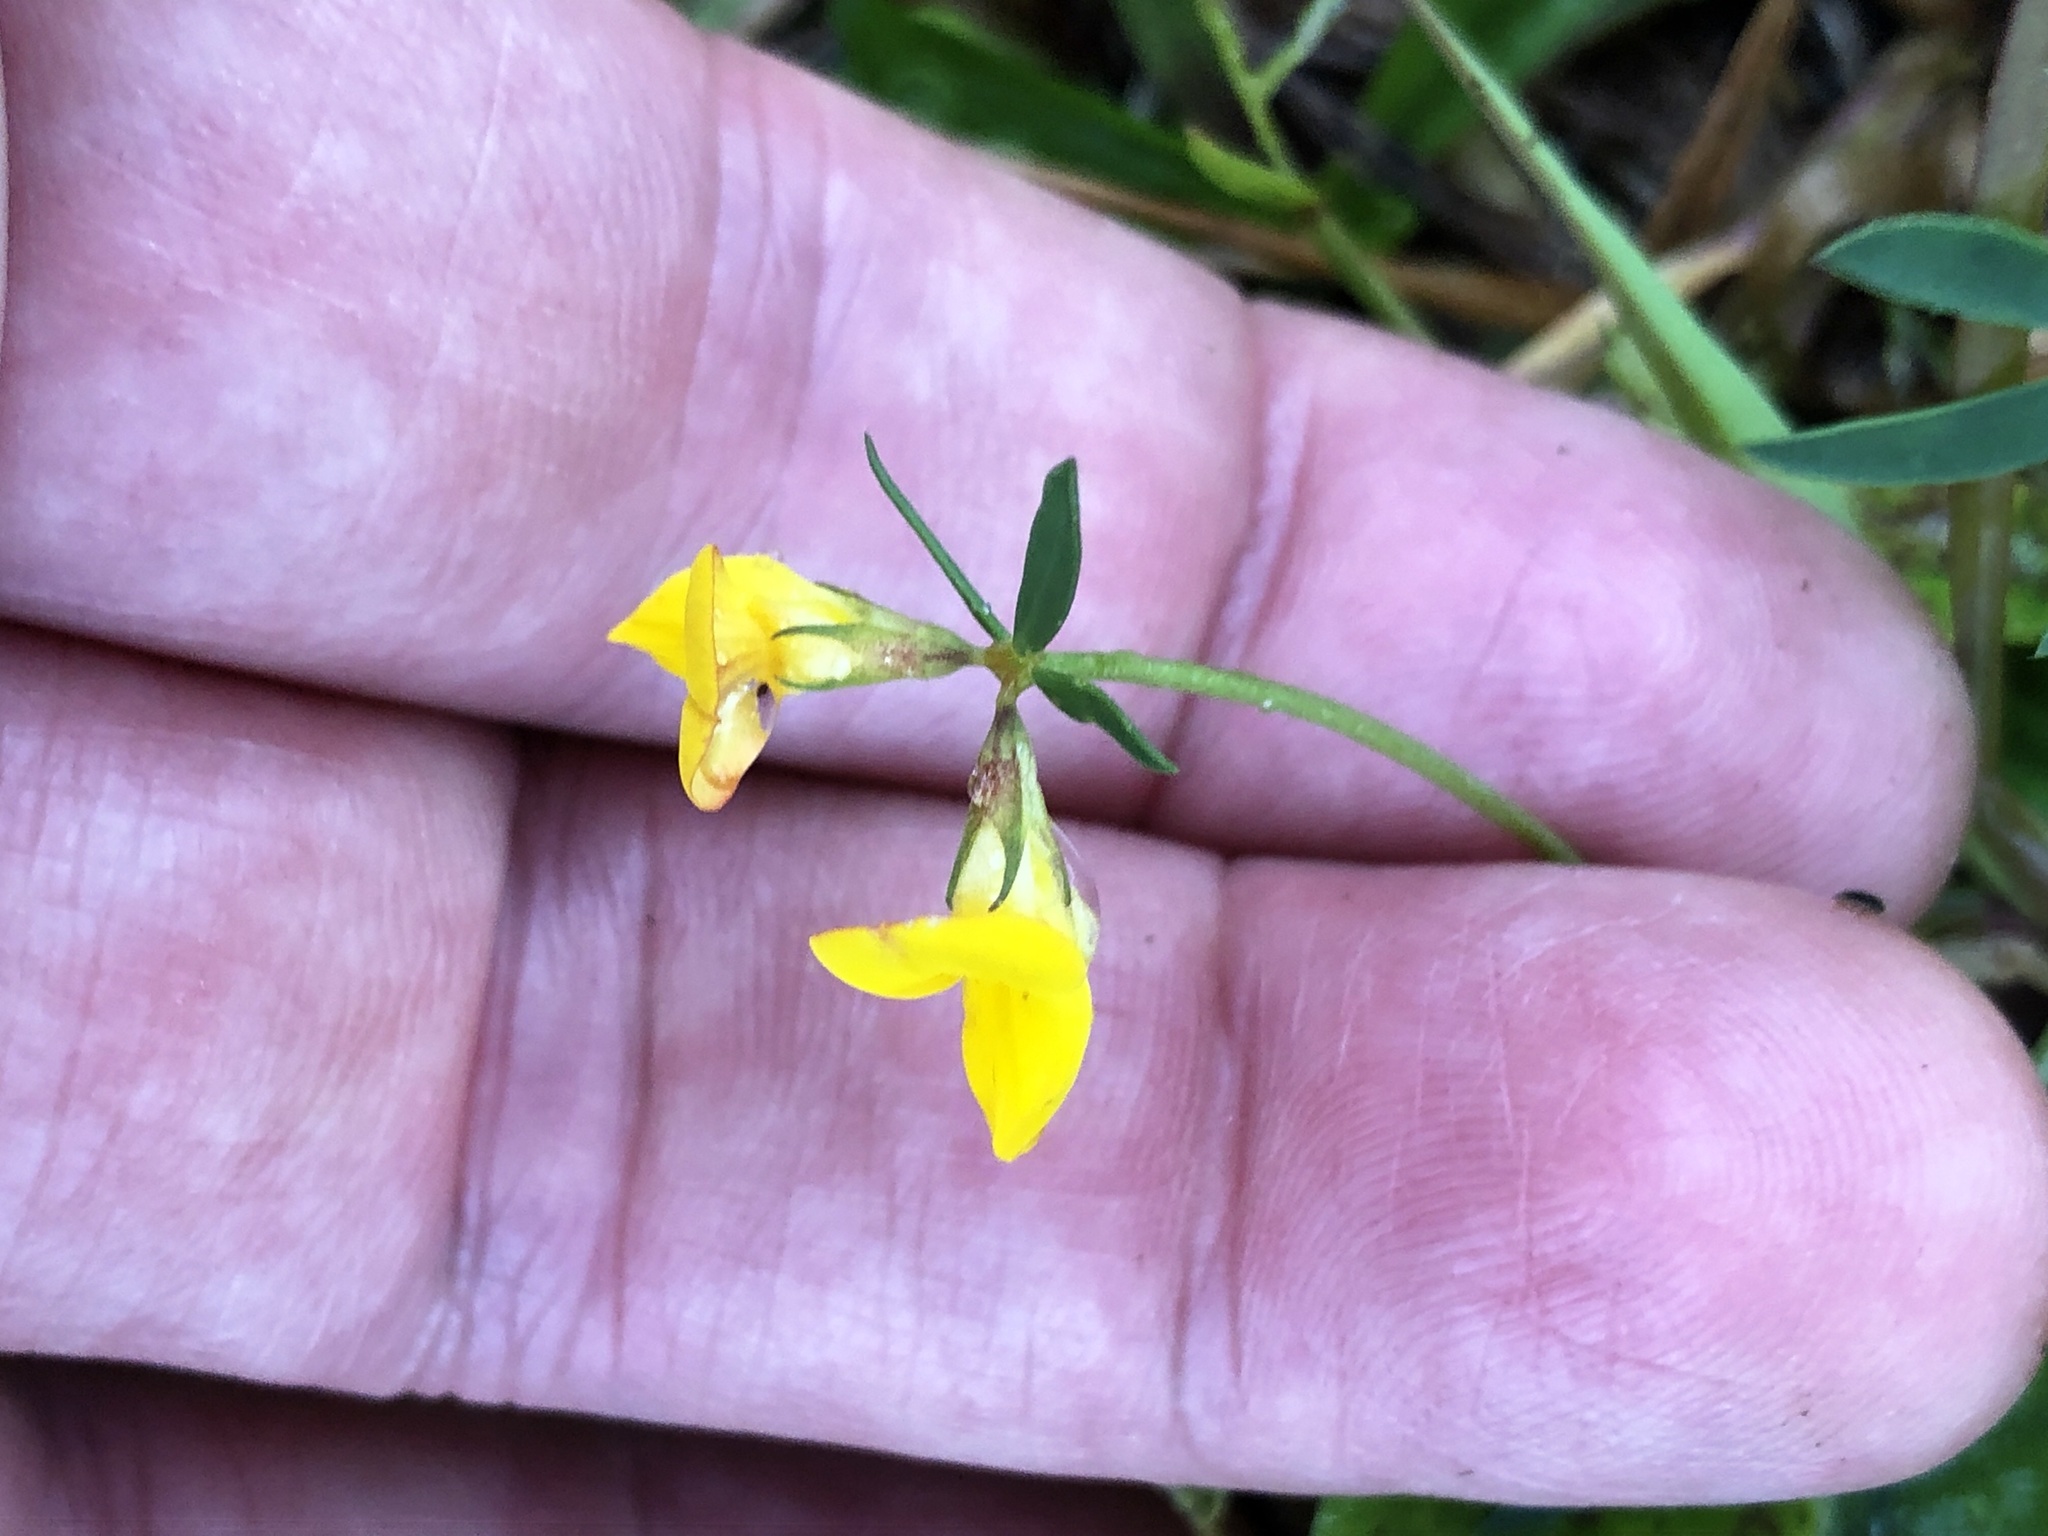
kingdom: Plantae
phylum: Tracheophyta
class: Magnoliopsida
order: Fabales
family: Fabaceae
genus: Lotus
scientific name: Lotus tenuis
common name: Narrow-leaved bird's-foot-trefoil
